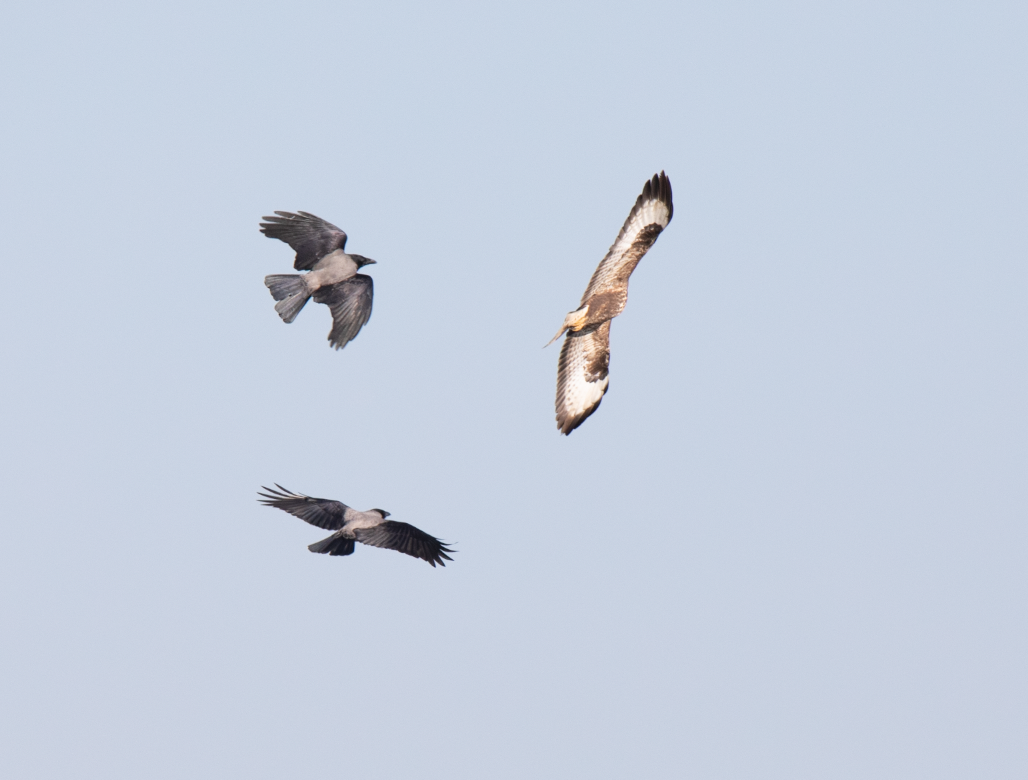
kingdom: Animalia
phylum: Chordata
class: Aves
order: Accipitriformes
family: Accipitridae
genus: Buteo
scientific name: Buteo buteo
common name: Common buzzard
